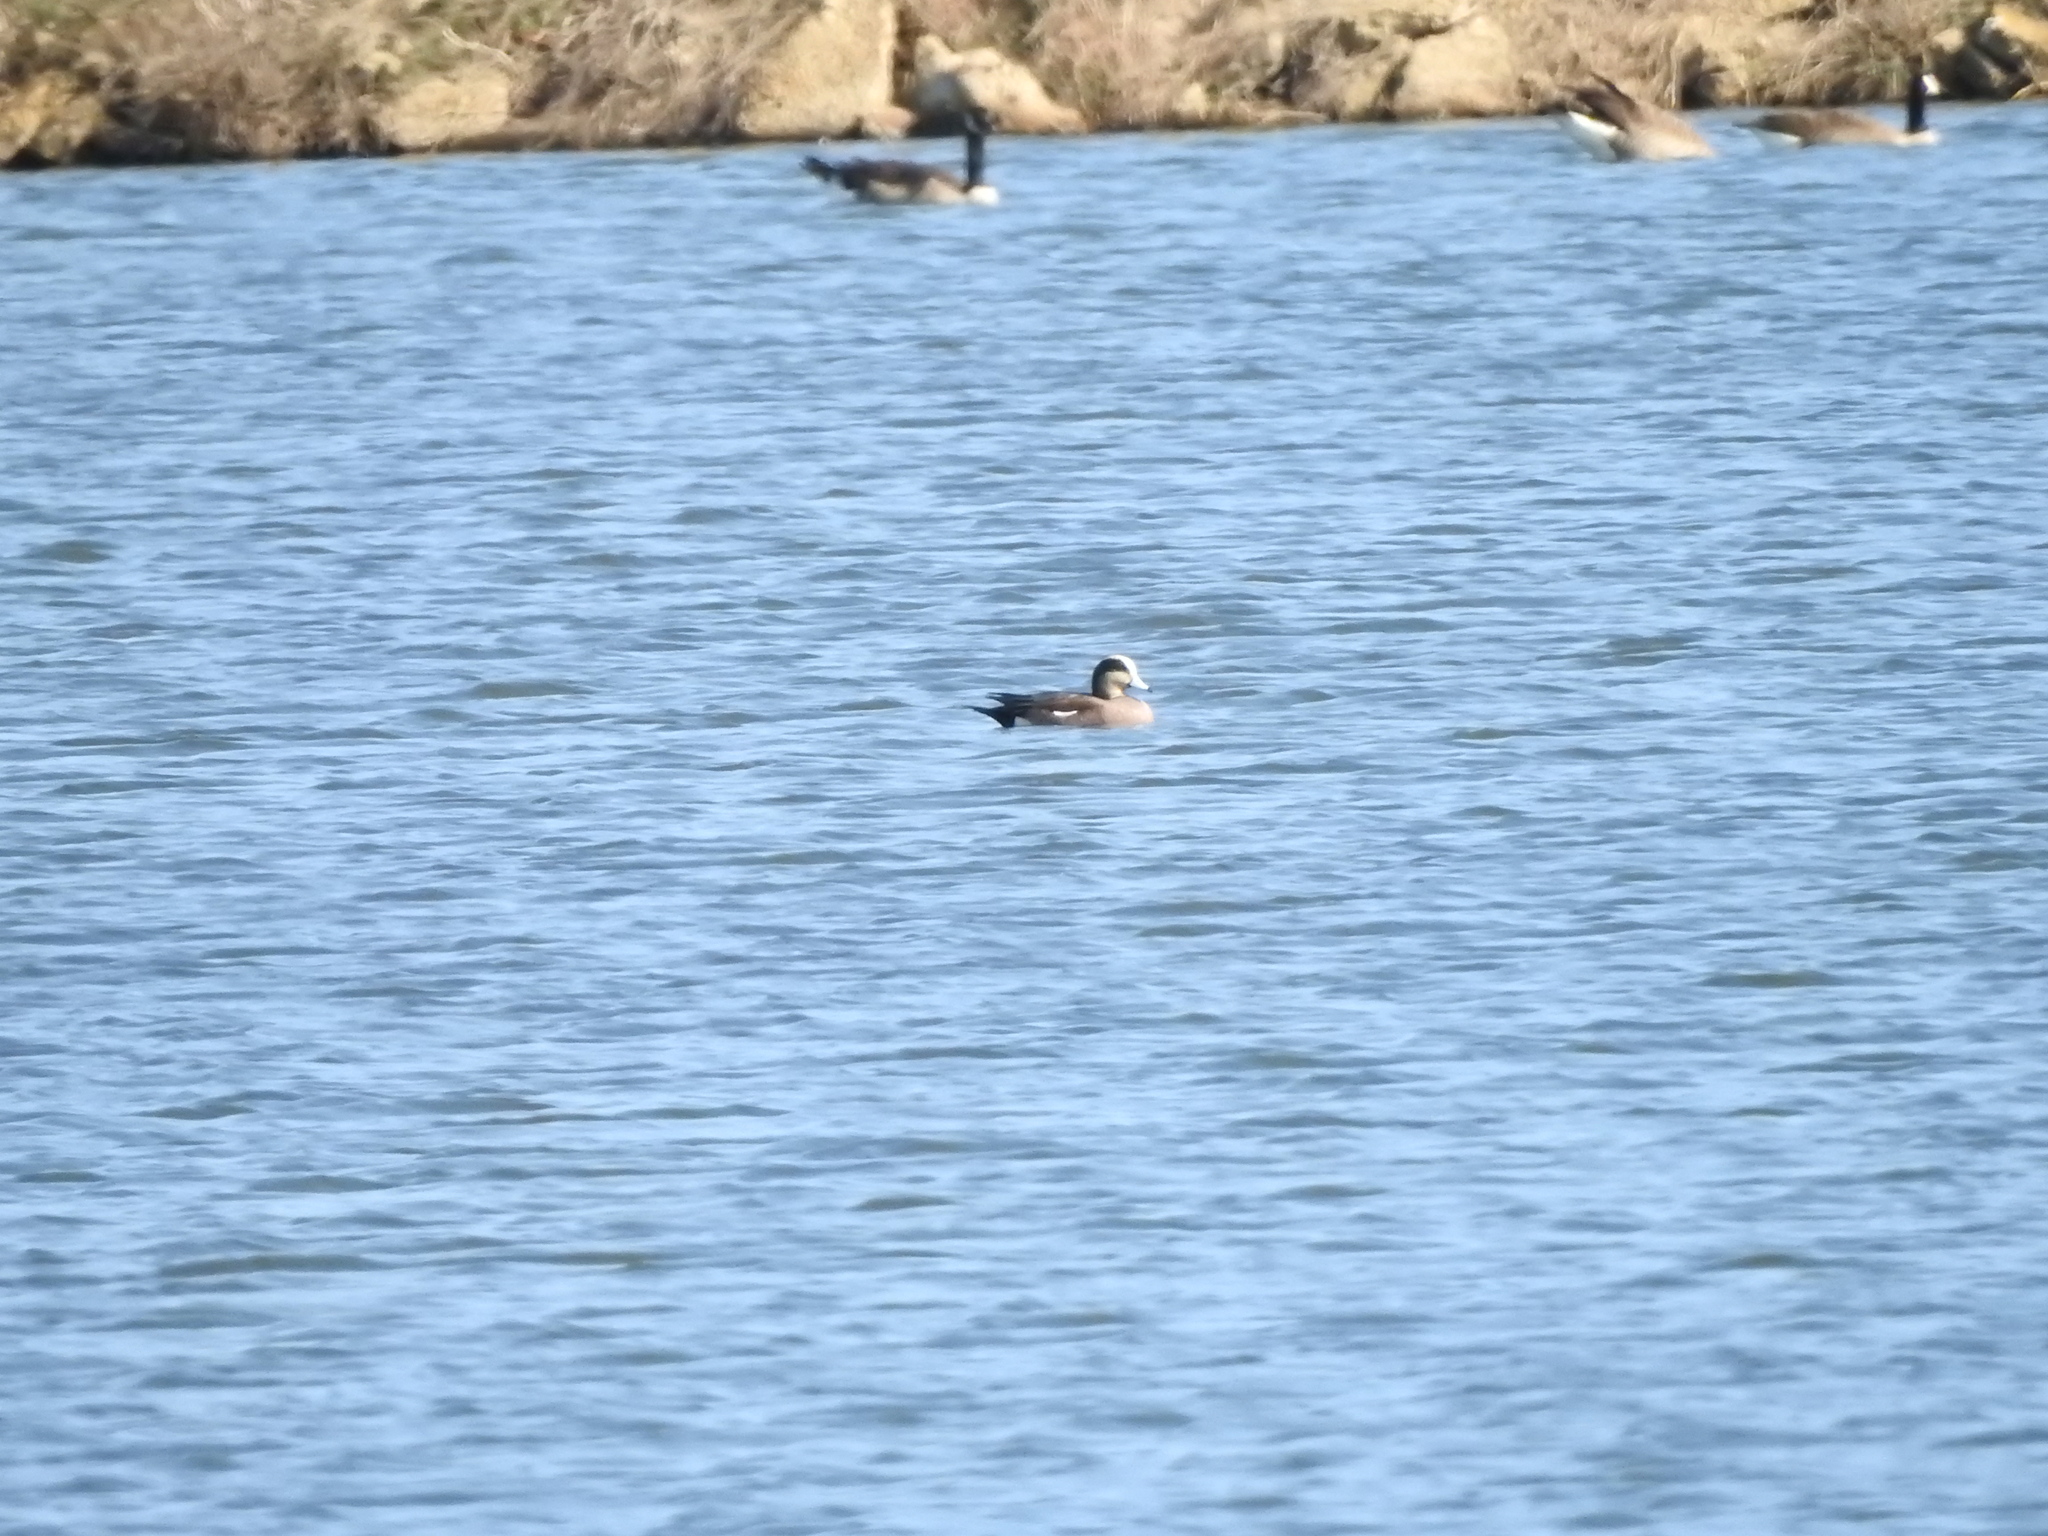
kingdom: Animalia
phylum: Chordata
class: Aves
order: Anseriformes
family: Anatidae
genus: Mareca
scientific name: Mareca americana
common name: American wigeon
